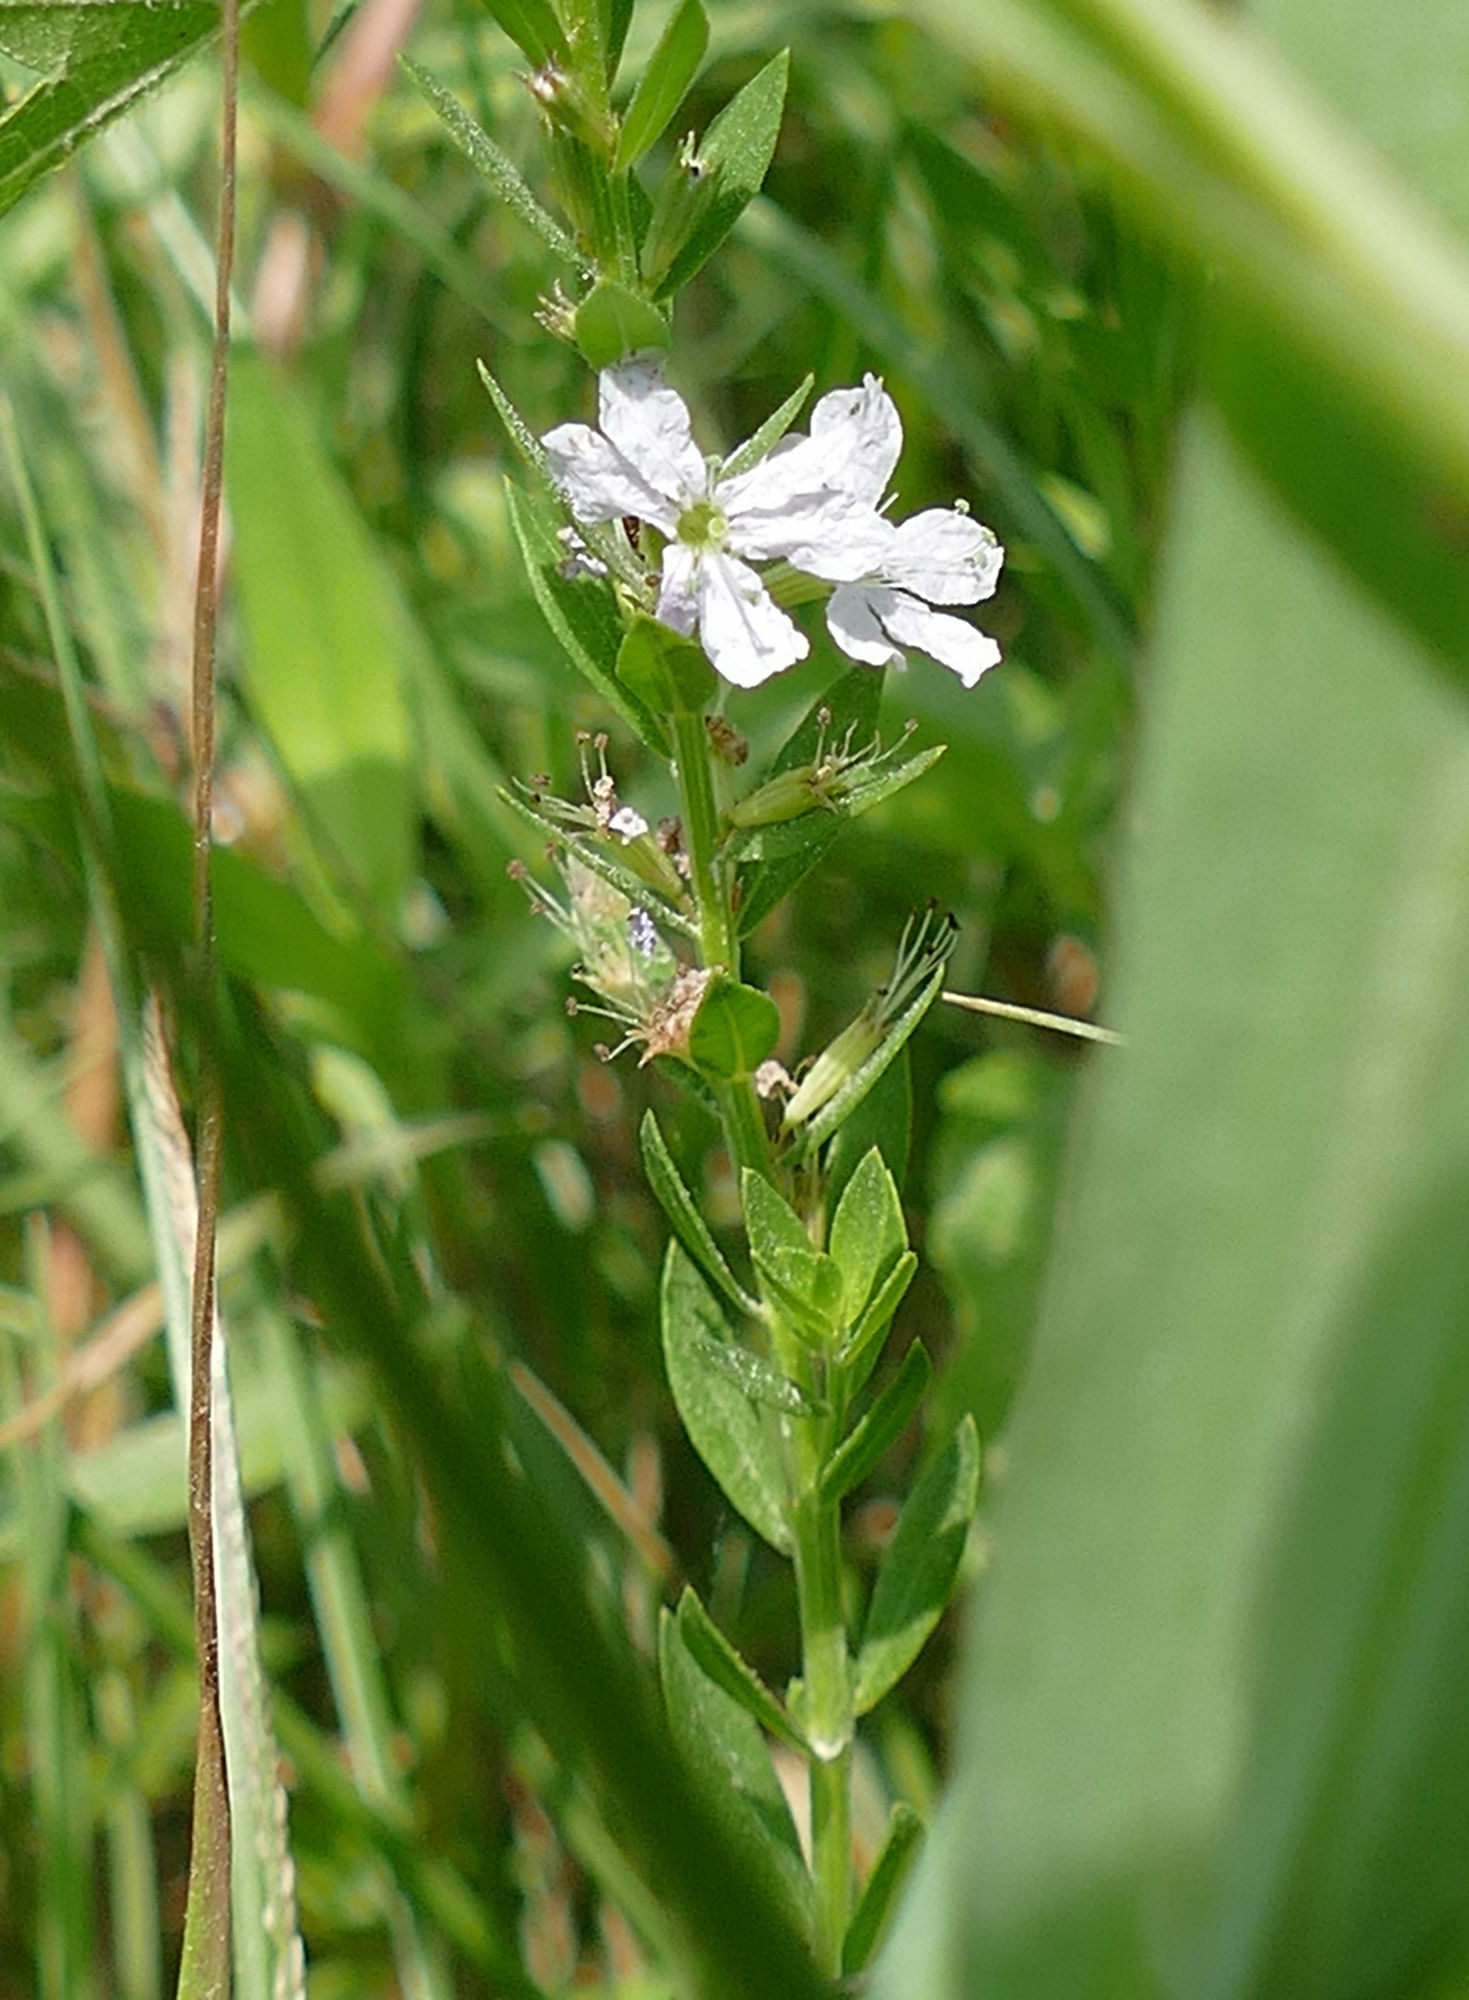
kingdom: Plantae
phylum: Tracheophyta
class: Magnoliopsida
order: Myrtales
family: Lythraceae
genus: Lythrum
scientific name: Lythrum alatum
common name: Winged loosestrife
